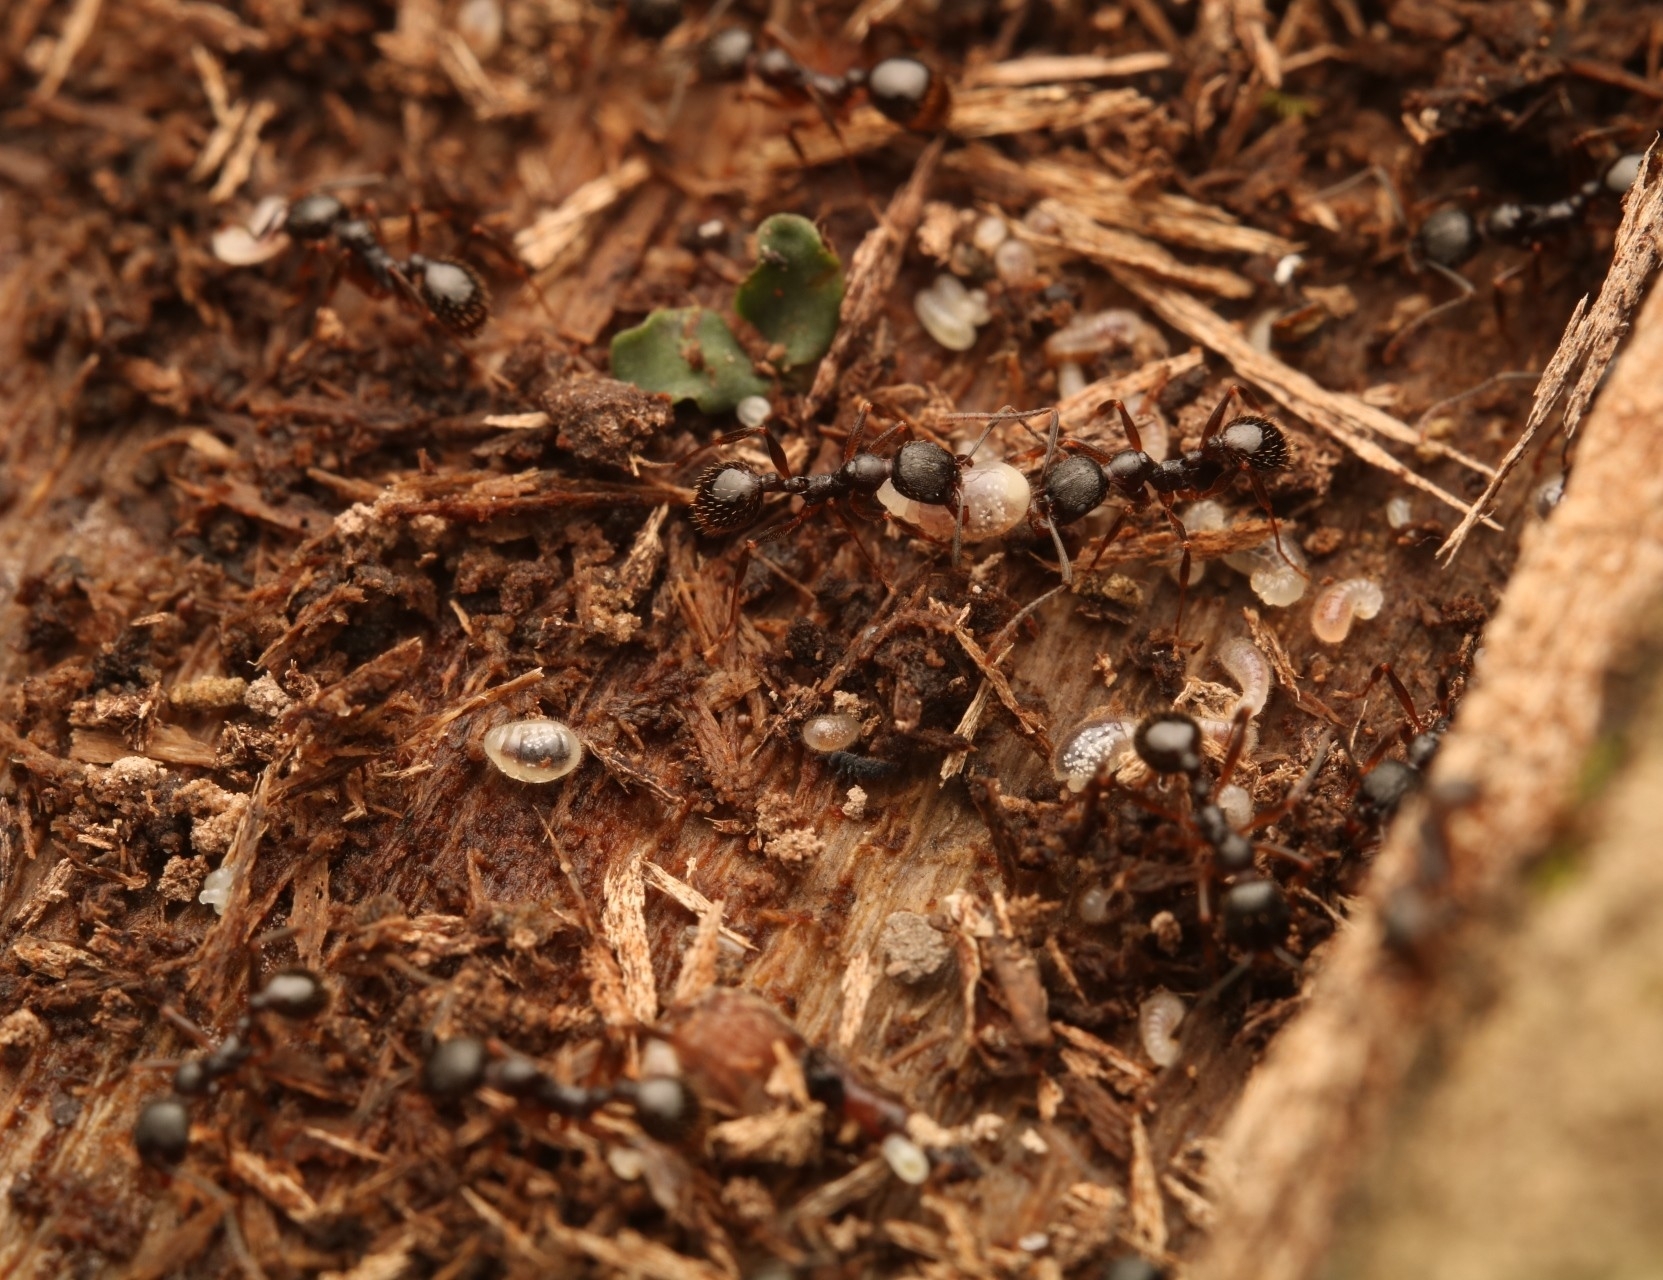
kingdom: Animalia
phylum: Arthropoda
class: Insecta
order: Hymenoptera
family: Formicidae
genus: Aphaenogaster
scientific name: Aphaenogaster picea
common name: Pitch-black collared ant
